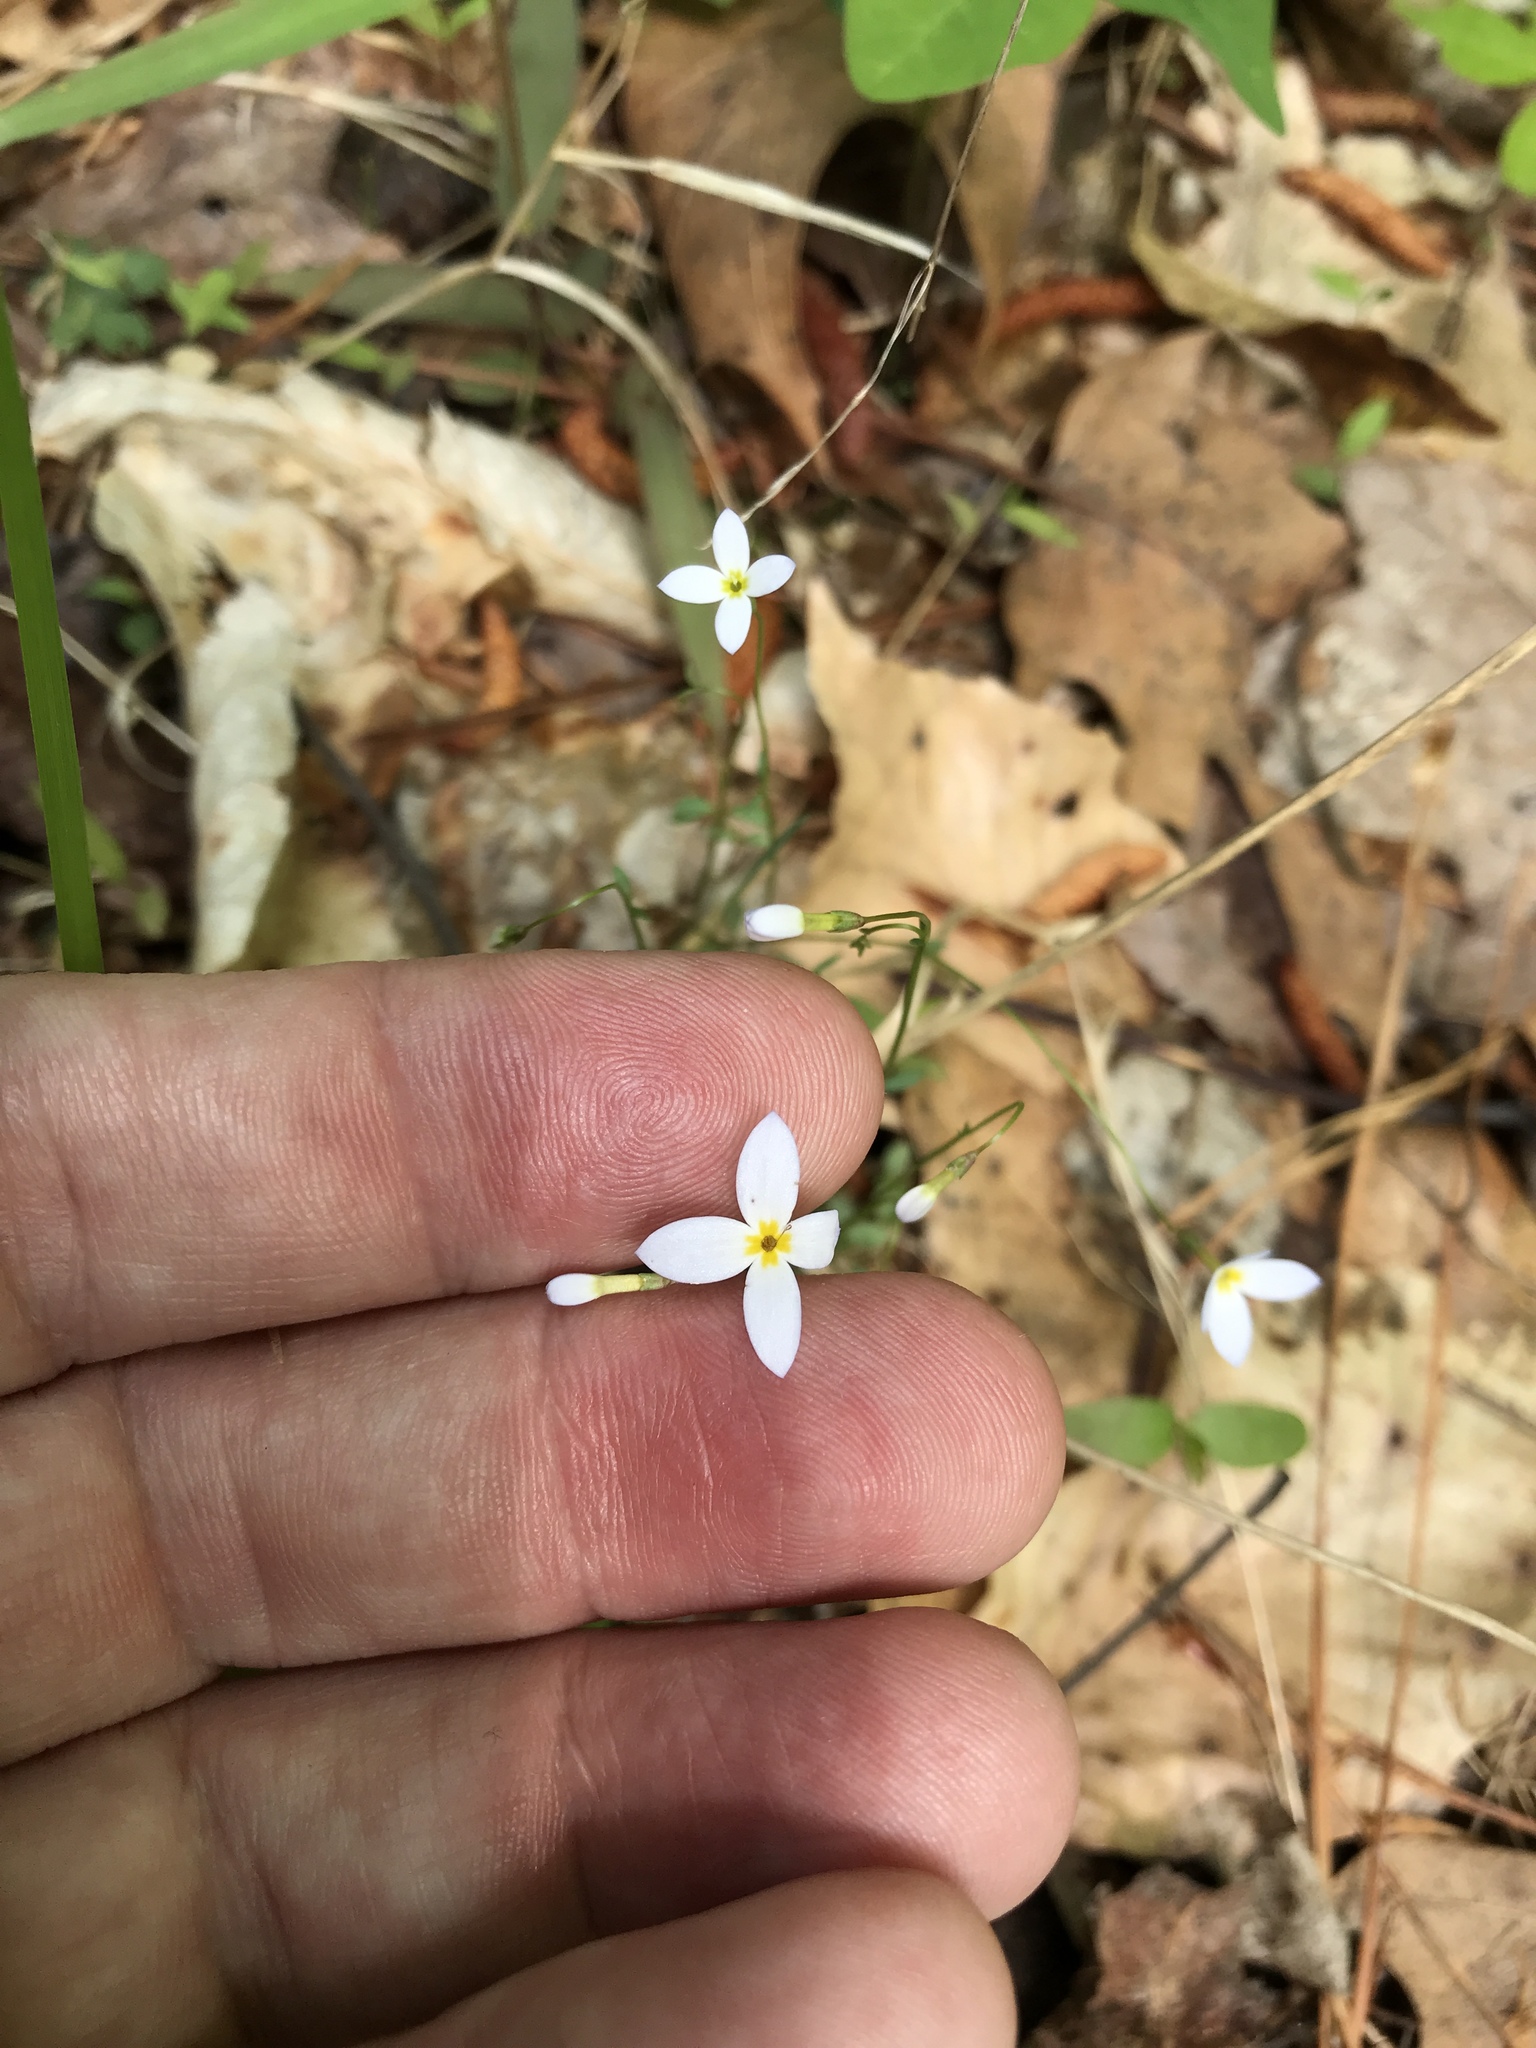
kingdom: Plantae
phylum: Tracheophyta
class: Magnoliopsida
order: Gentianales
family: Rubiaceae
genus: Houstonia
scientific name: Houstonia caerulea
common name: Bluets
